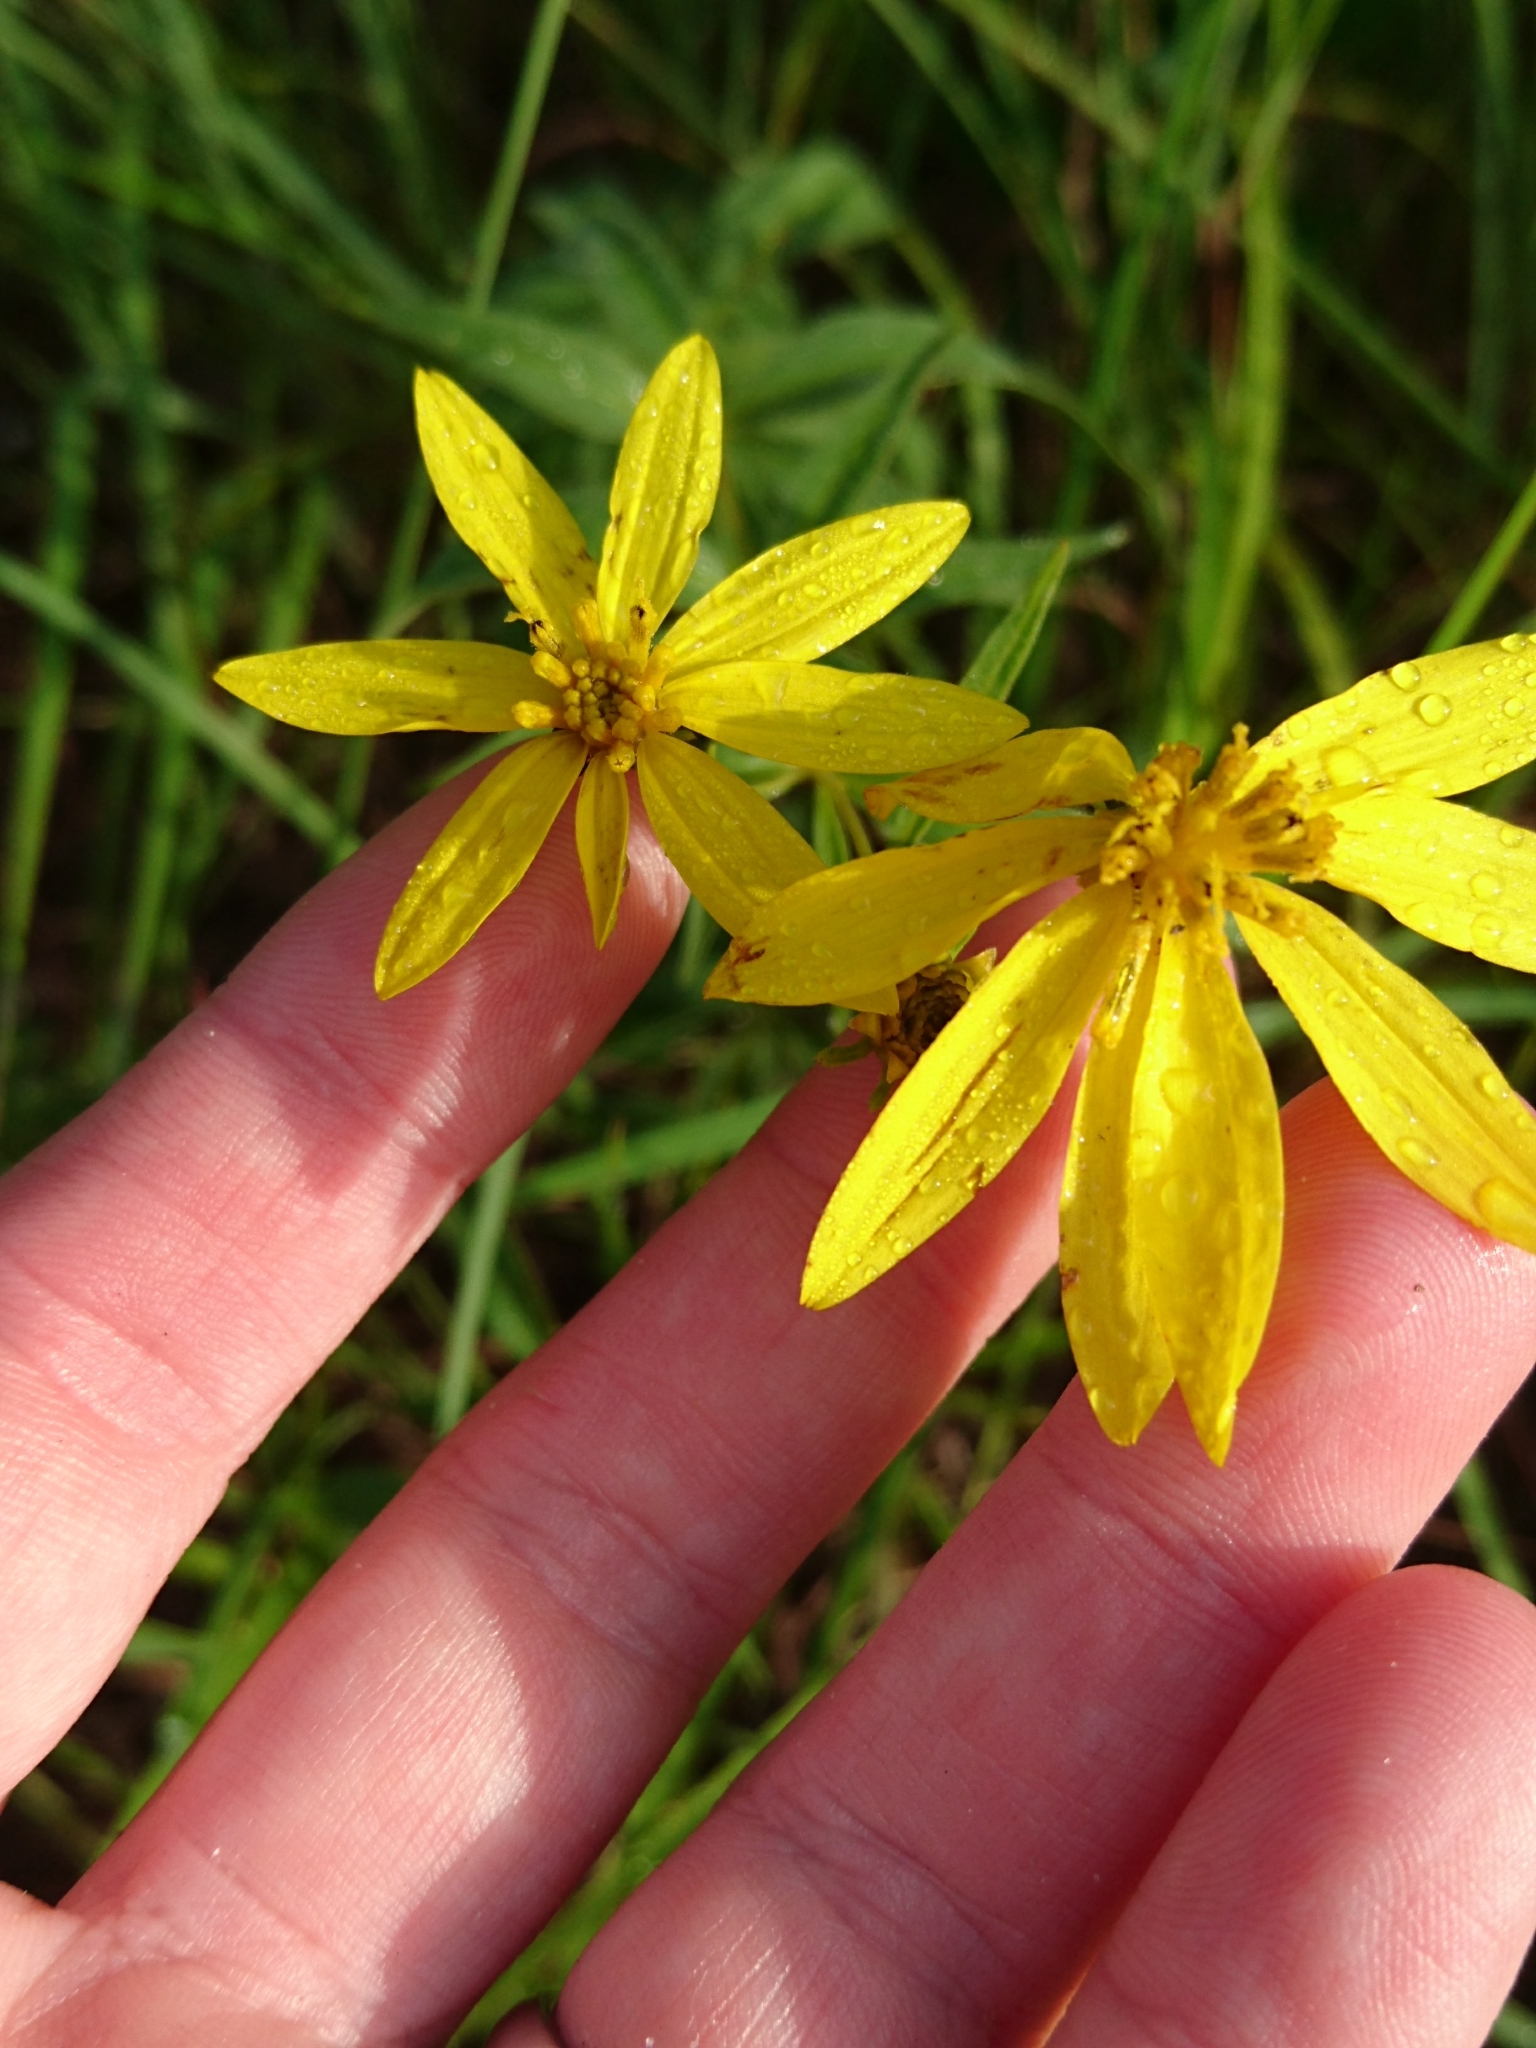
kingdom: Plantae
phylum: Tracheophyta
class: Magnoliopsida
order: Asterales
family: Asteraceae
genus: Coreopsis
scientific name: Coreopsis major
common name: Forest tickseed
